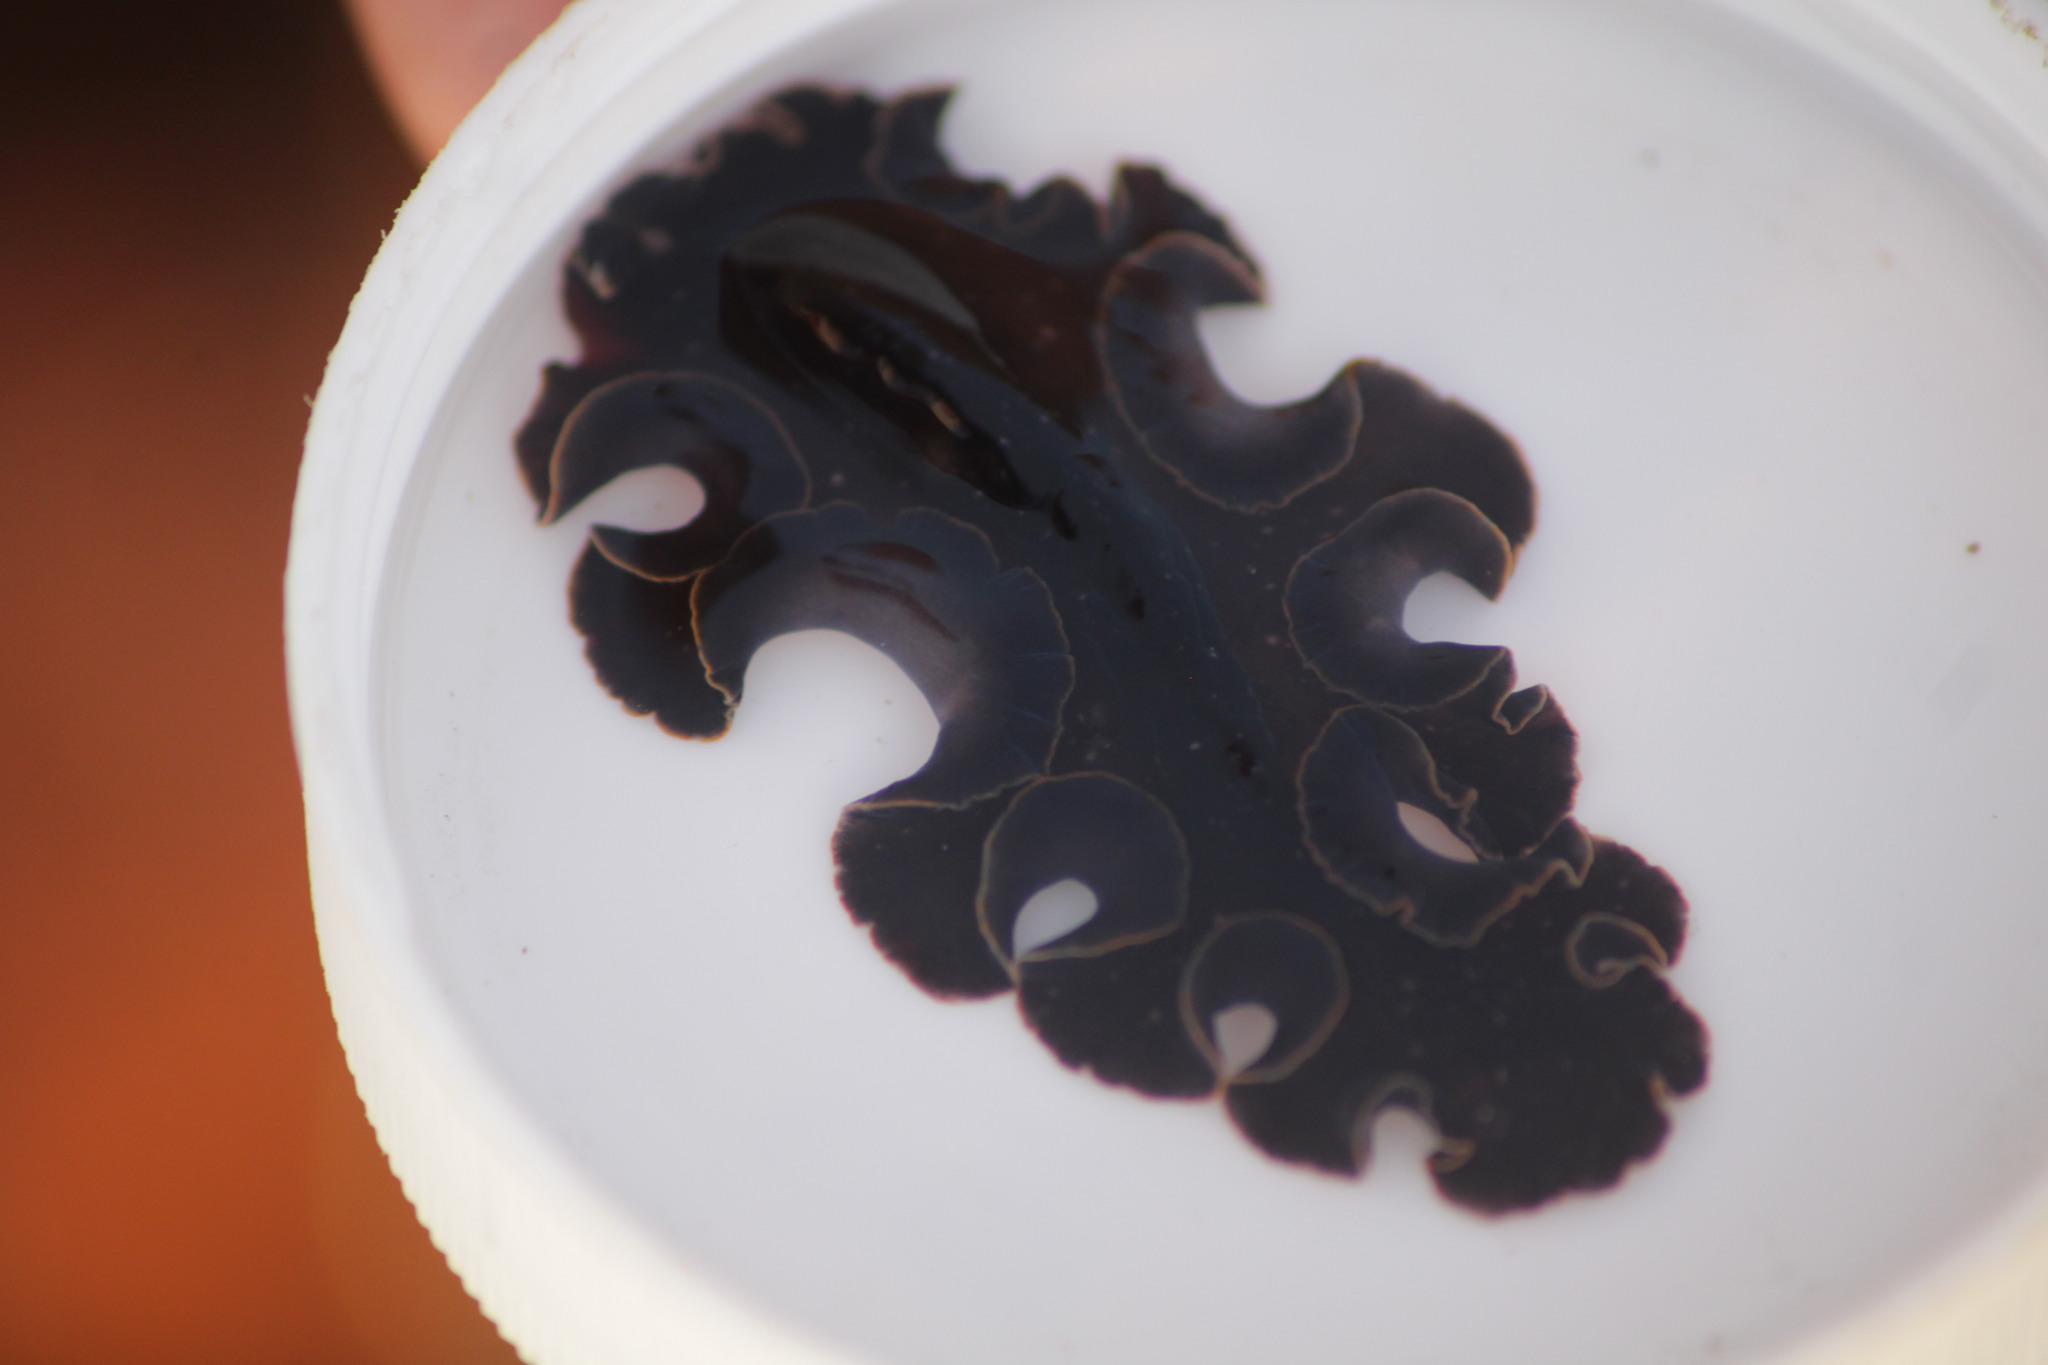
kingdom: Animalia
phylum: Platyhelminthes
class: Turbellaria
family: Pseudocerotidae
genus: Pseudoceros
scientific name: Pseudoceros mexicanus
